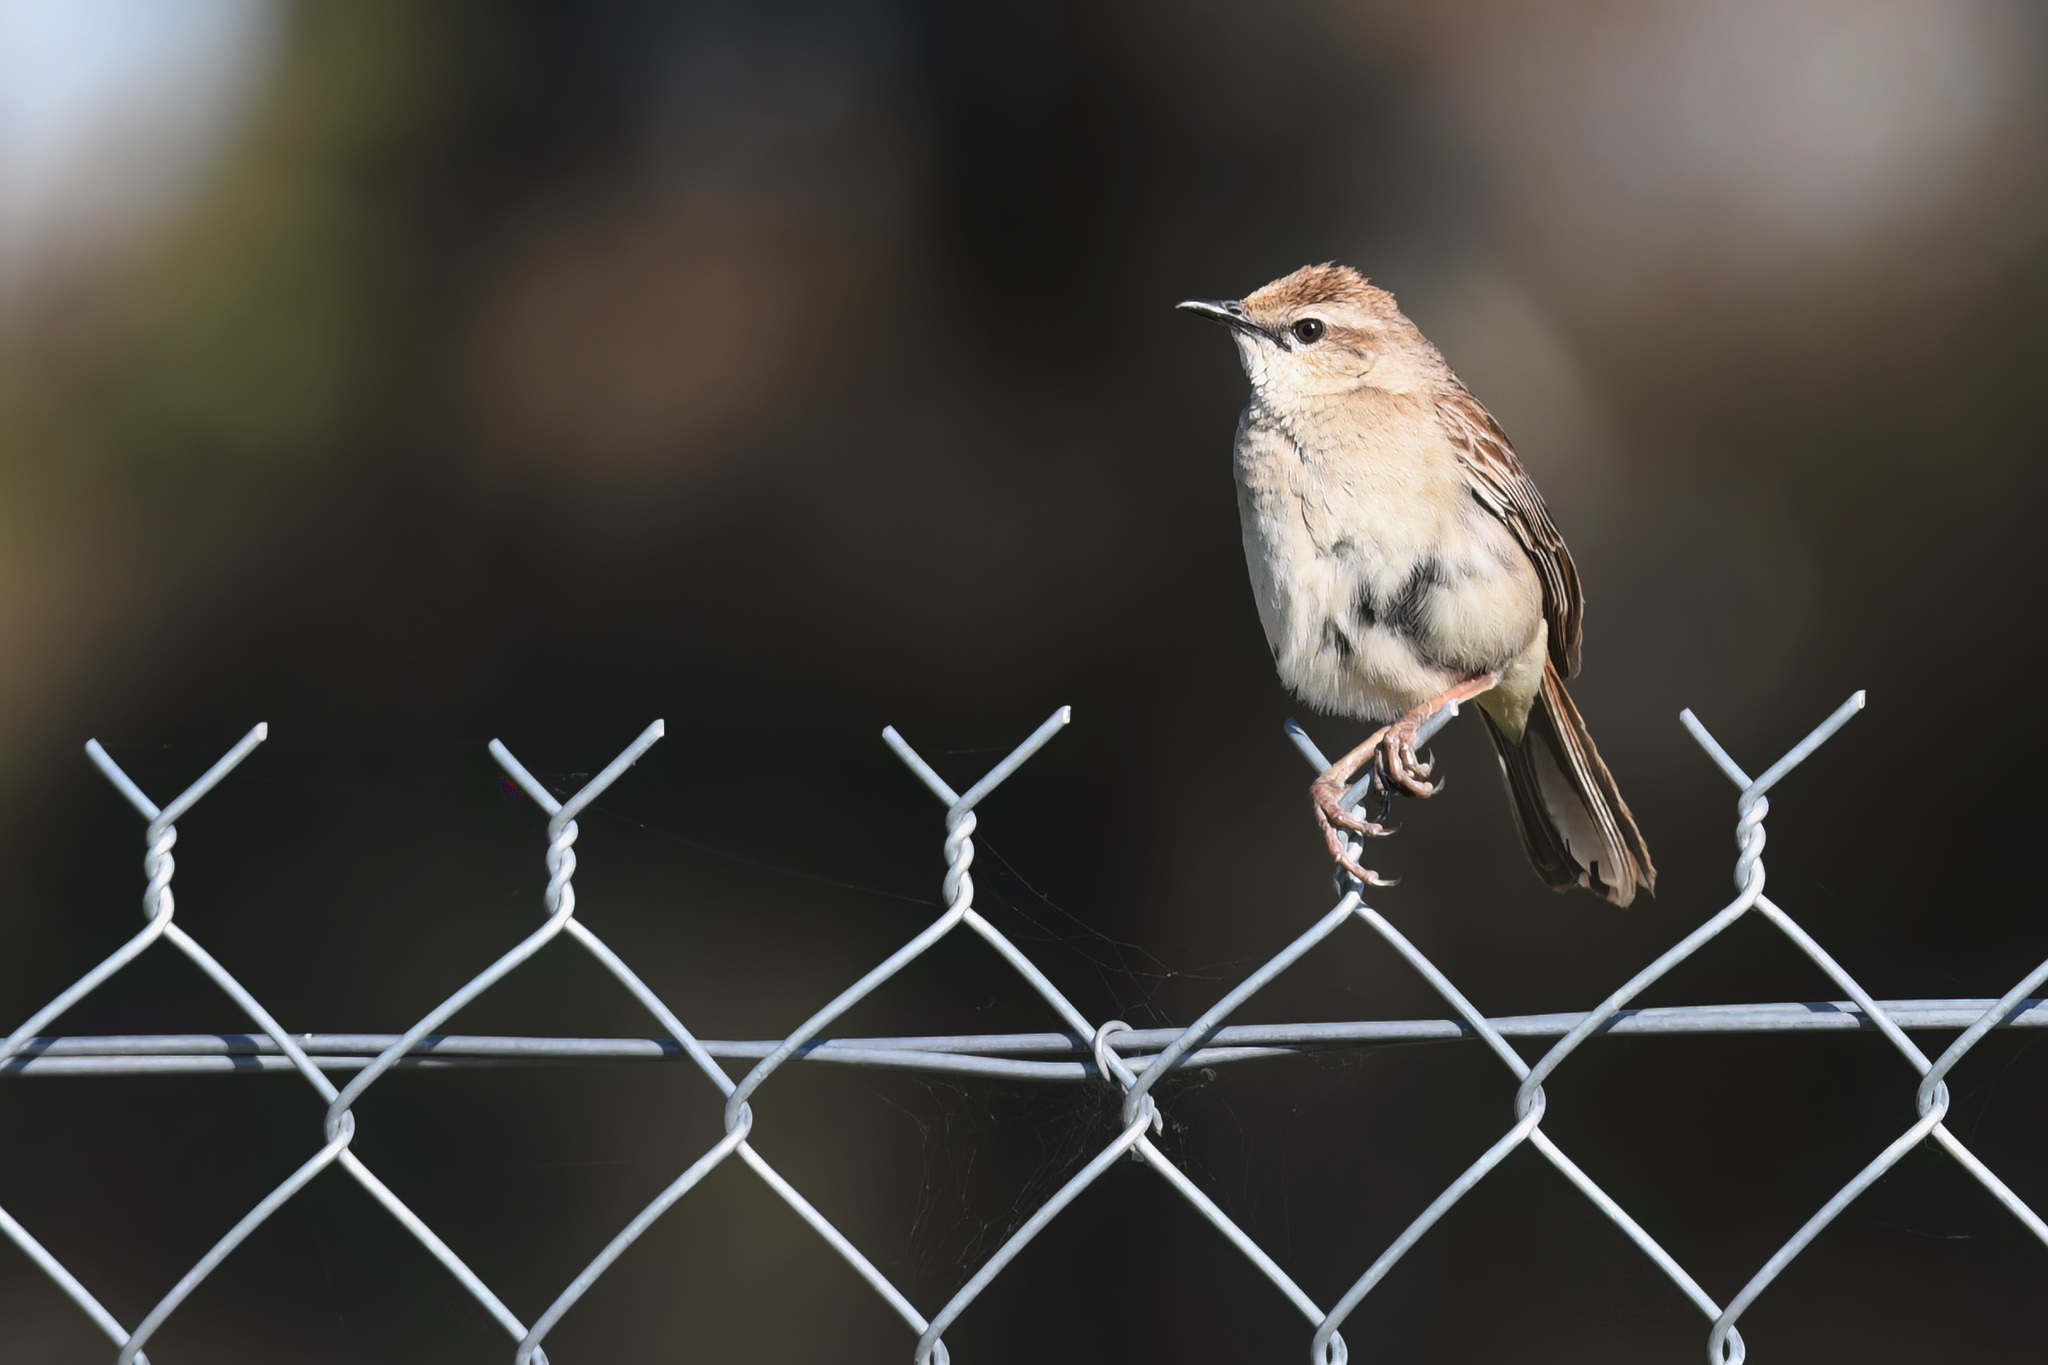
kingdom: Animalia
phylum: Chordata
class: Aves
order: Passeriformes
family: Locustellidae
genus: Megalurus
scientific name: Megalurus mathewsi
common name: Rufous songlark
